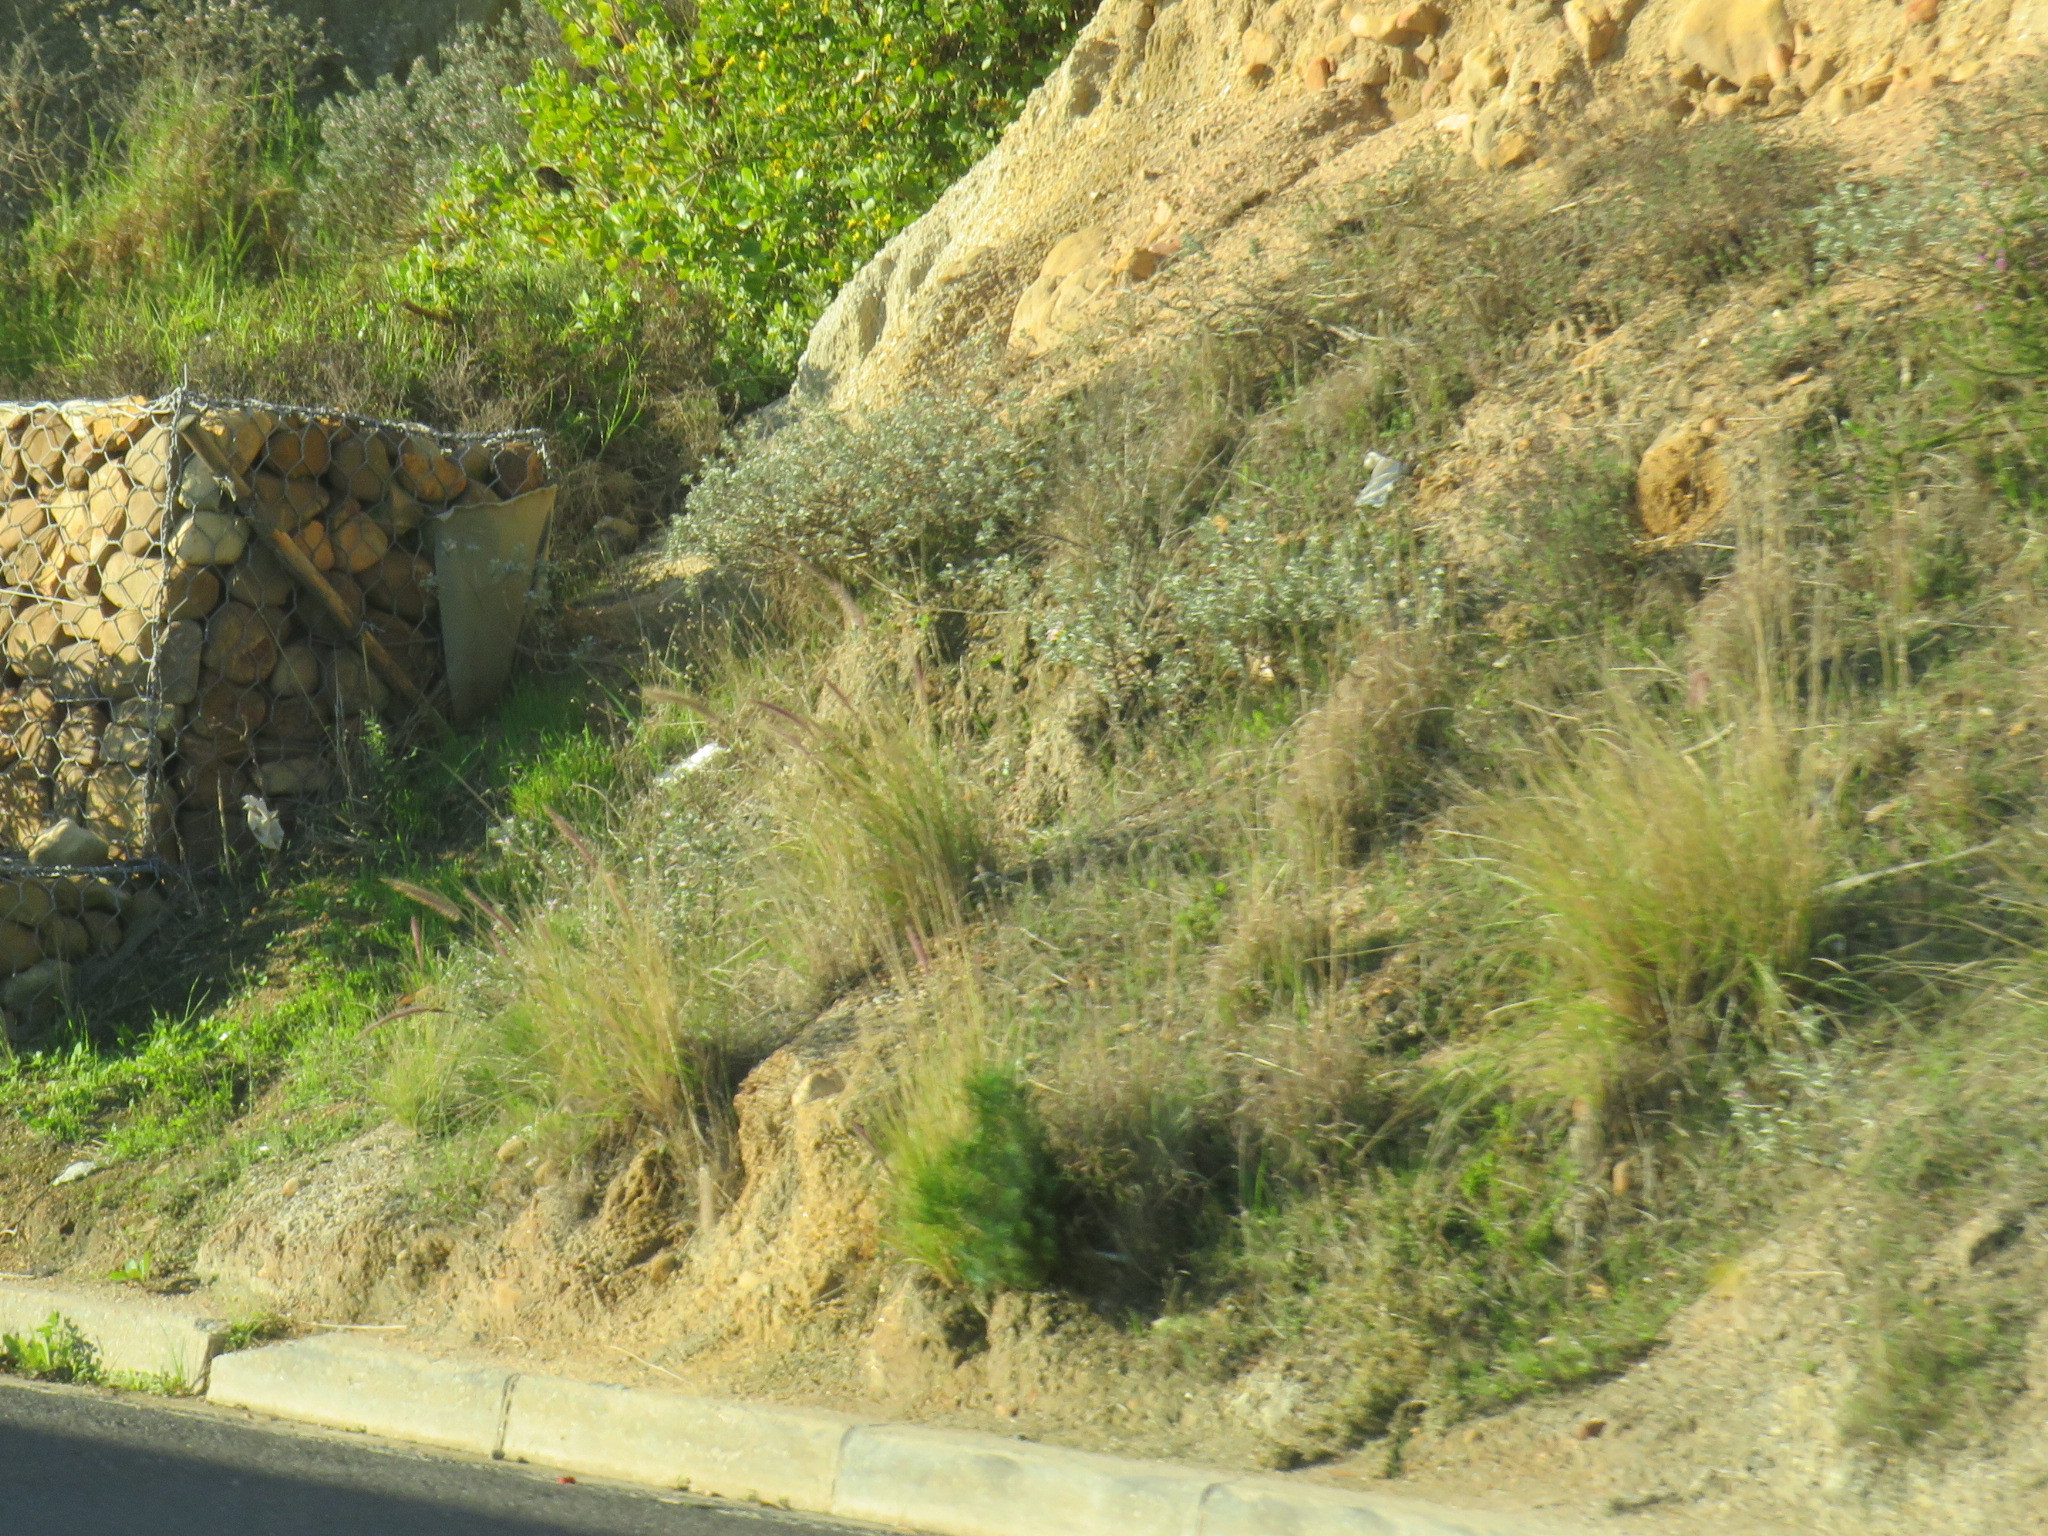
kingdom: Plantae
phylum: Tracheophyta
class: Liliopsida
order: Poales
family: Poaceae
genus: Cenchrus
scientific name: Cenchrus setaceus
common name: Crimson fountaingrass
